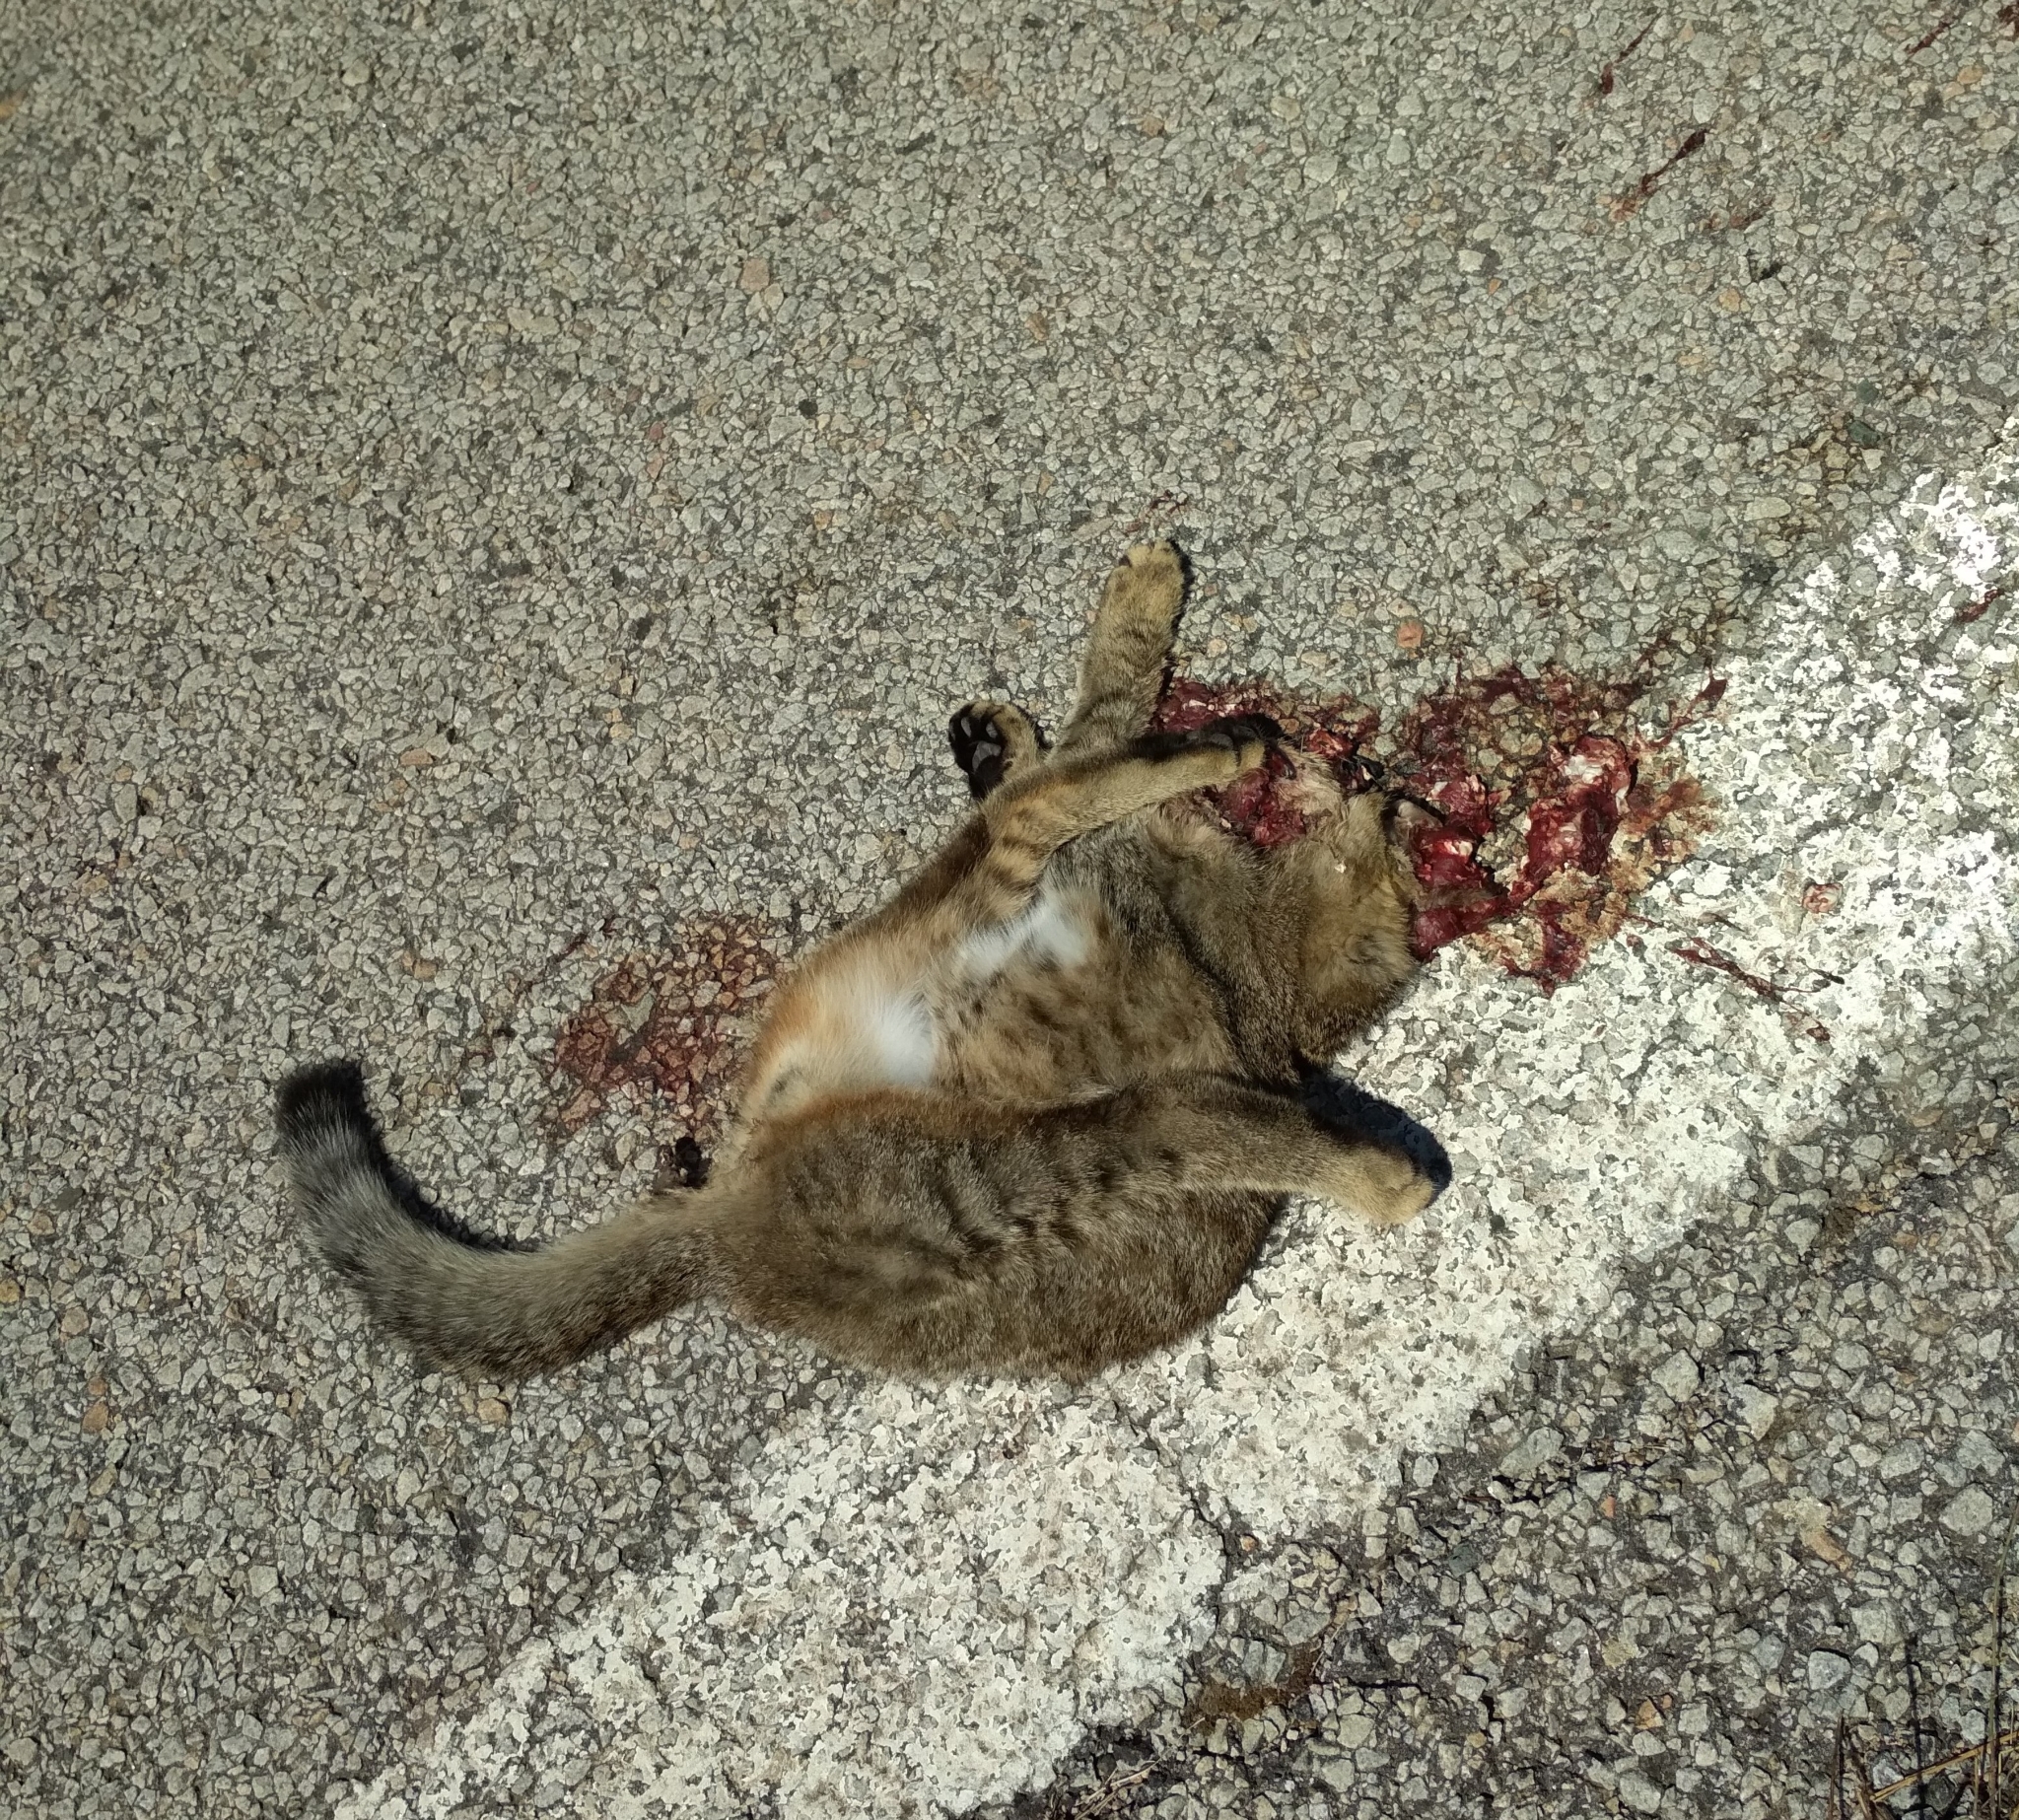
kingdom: Animalia
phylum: Chordata
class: Mammalia
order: Carnivora
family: Felidae
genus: Felis
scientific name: Felis catus
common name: Domestic cat
